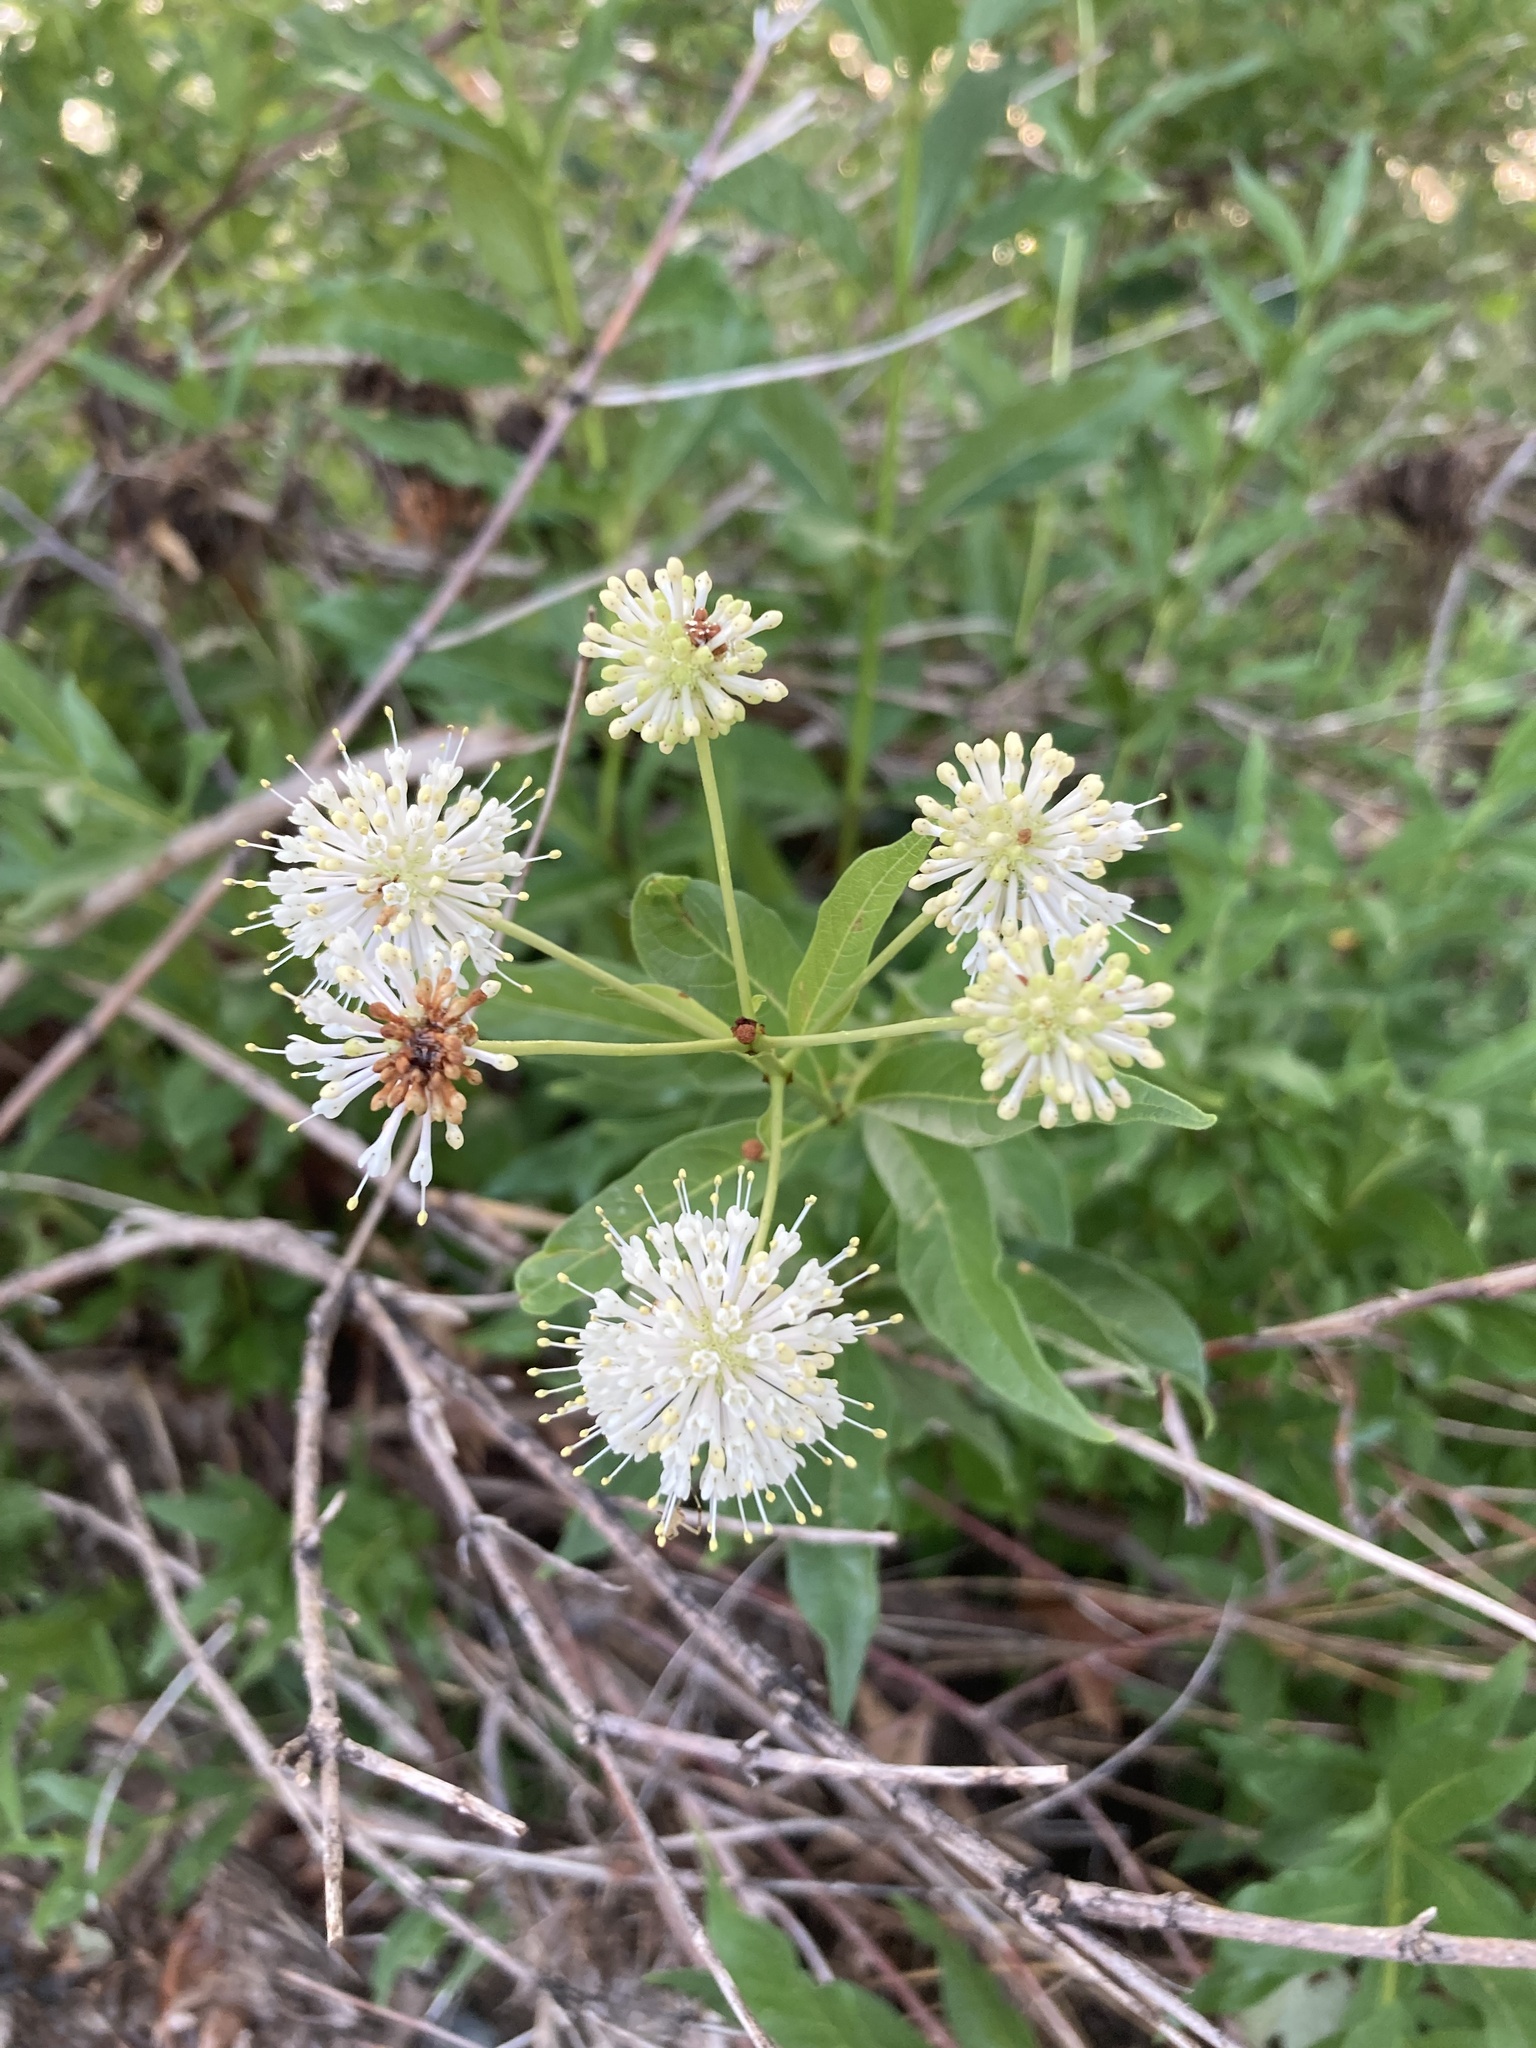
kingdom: Plantae
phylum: Tracheophyta
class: Magnoliopsida
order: Gentianales
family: Rubiaceae
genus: Cephalanthus
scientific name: Cephalanthus occidentalis
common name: Button-willow
